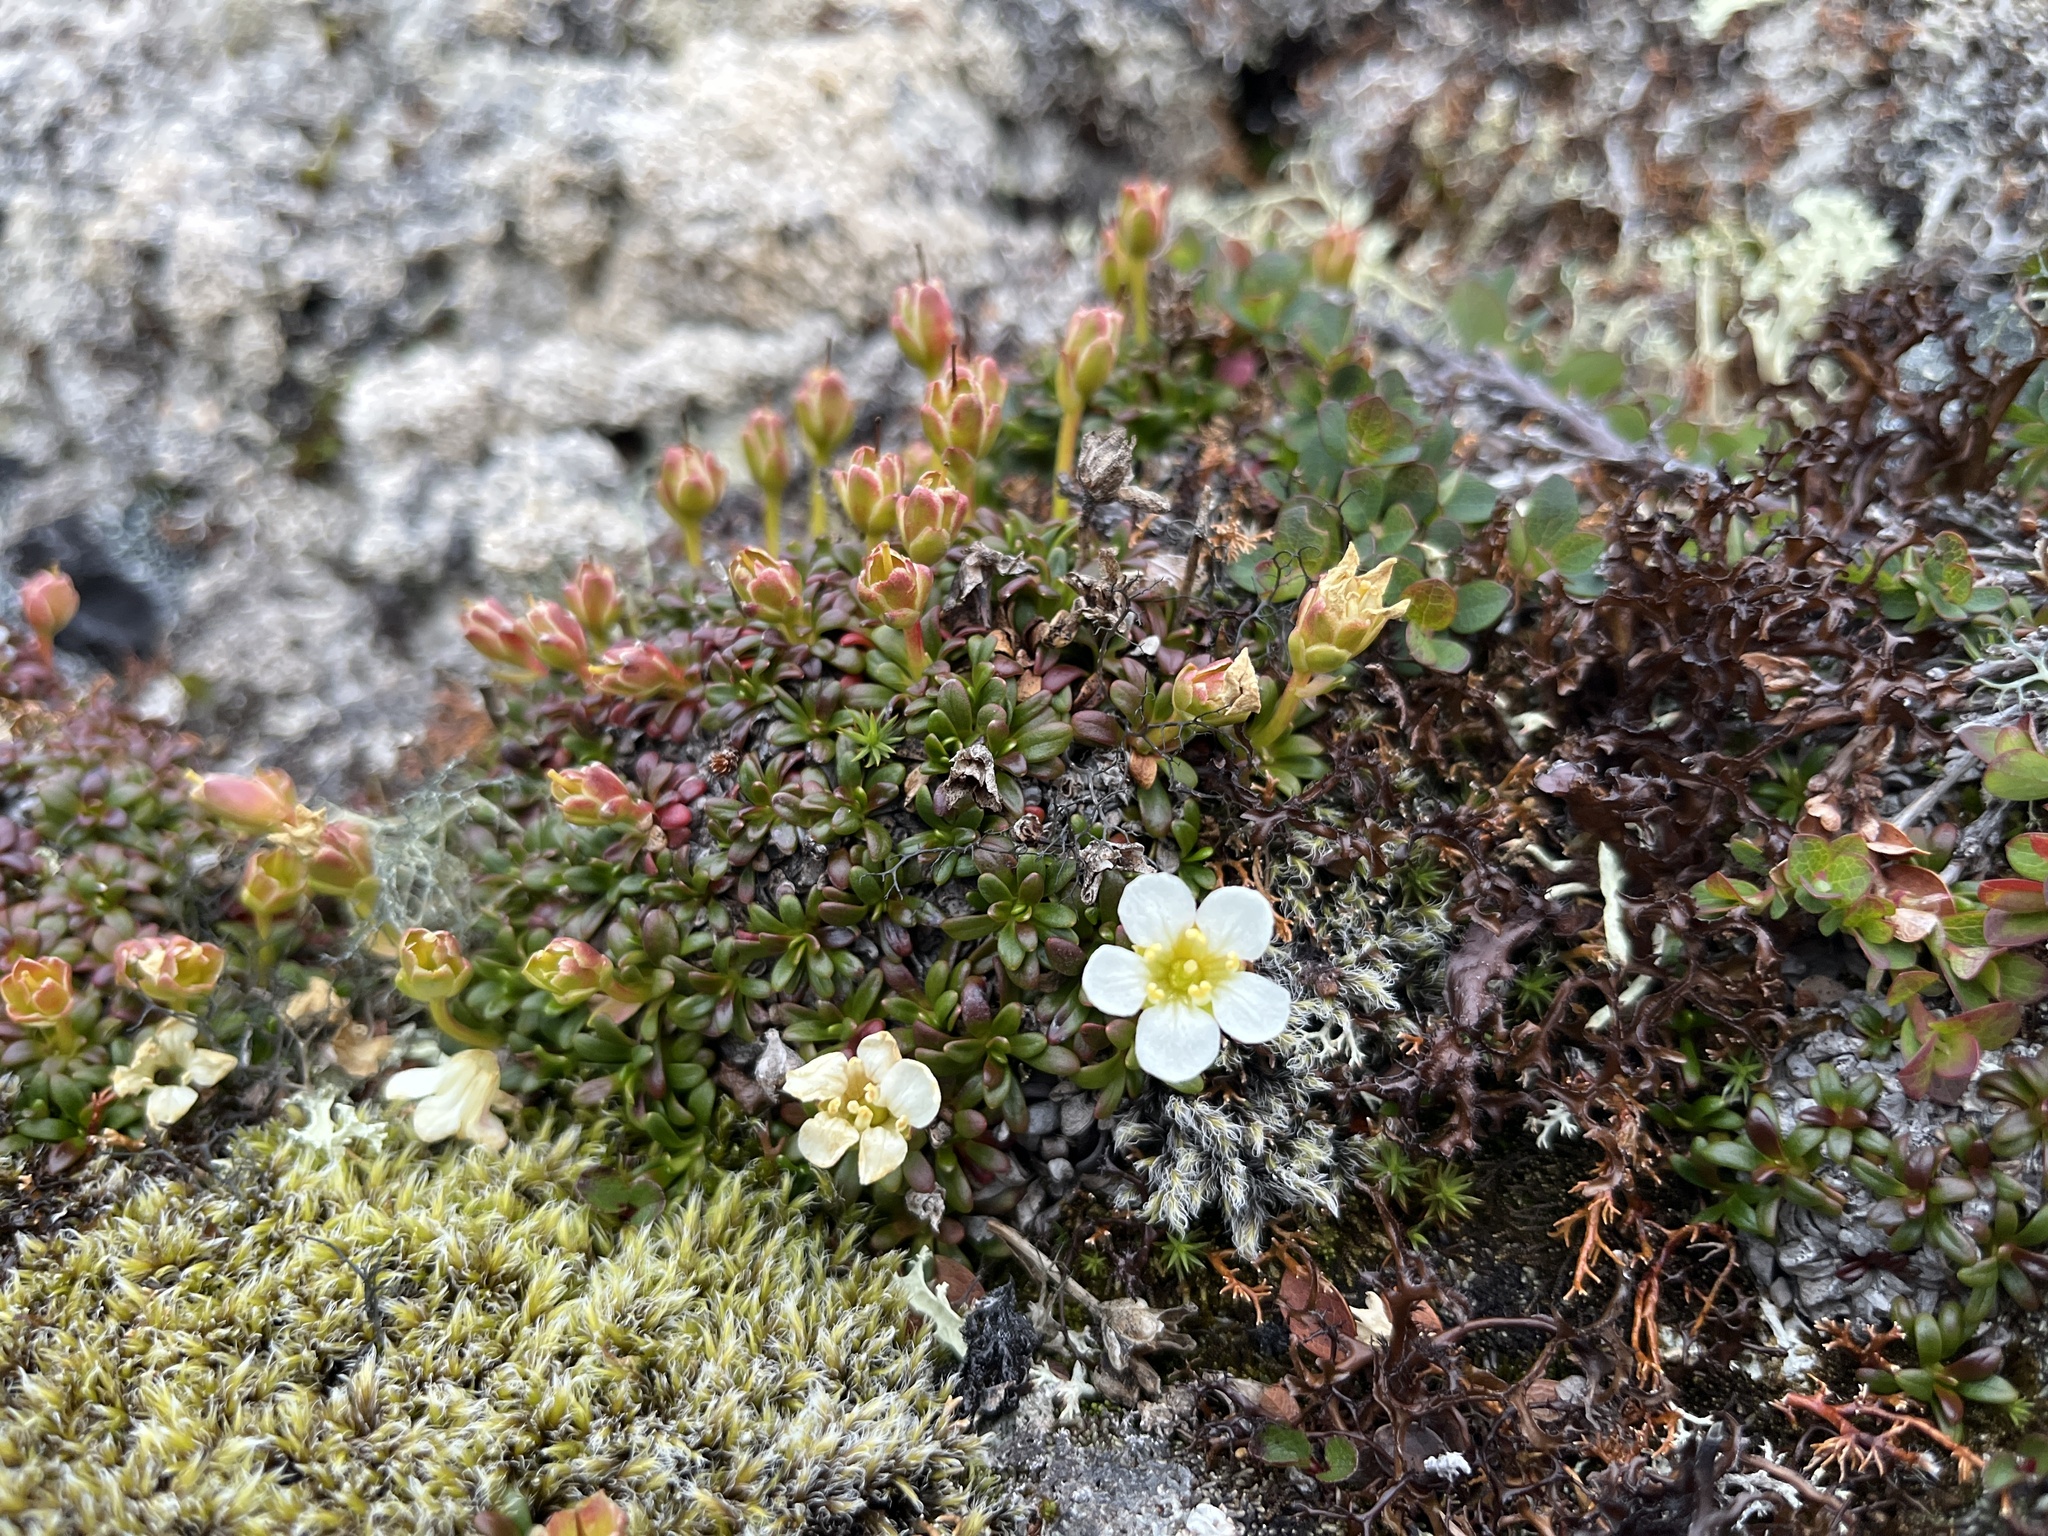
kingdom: Plantae
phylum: Tracheophyta
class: Magnoliopsida
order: Ericales
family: Diapensiaceae
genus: Diapensia
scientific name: Diapensia lapponica
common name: Diapensia
